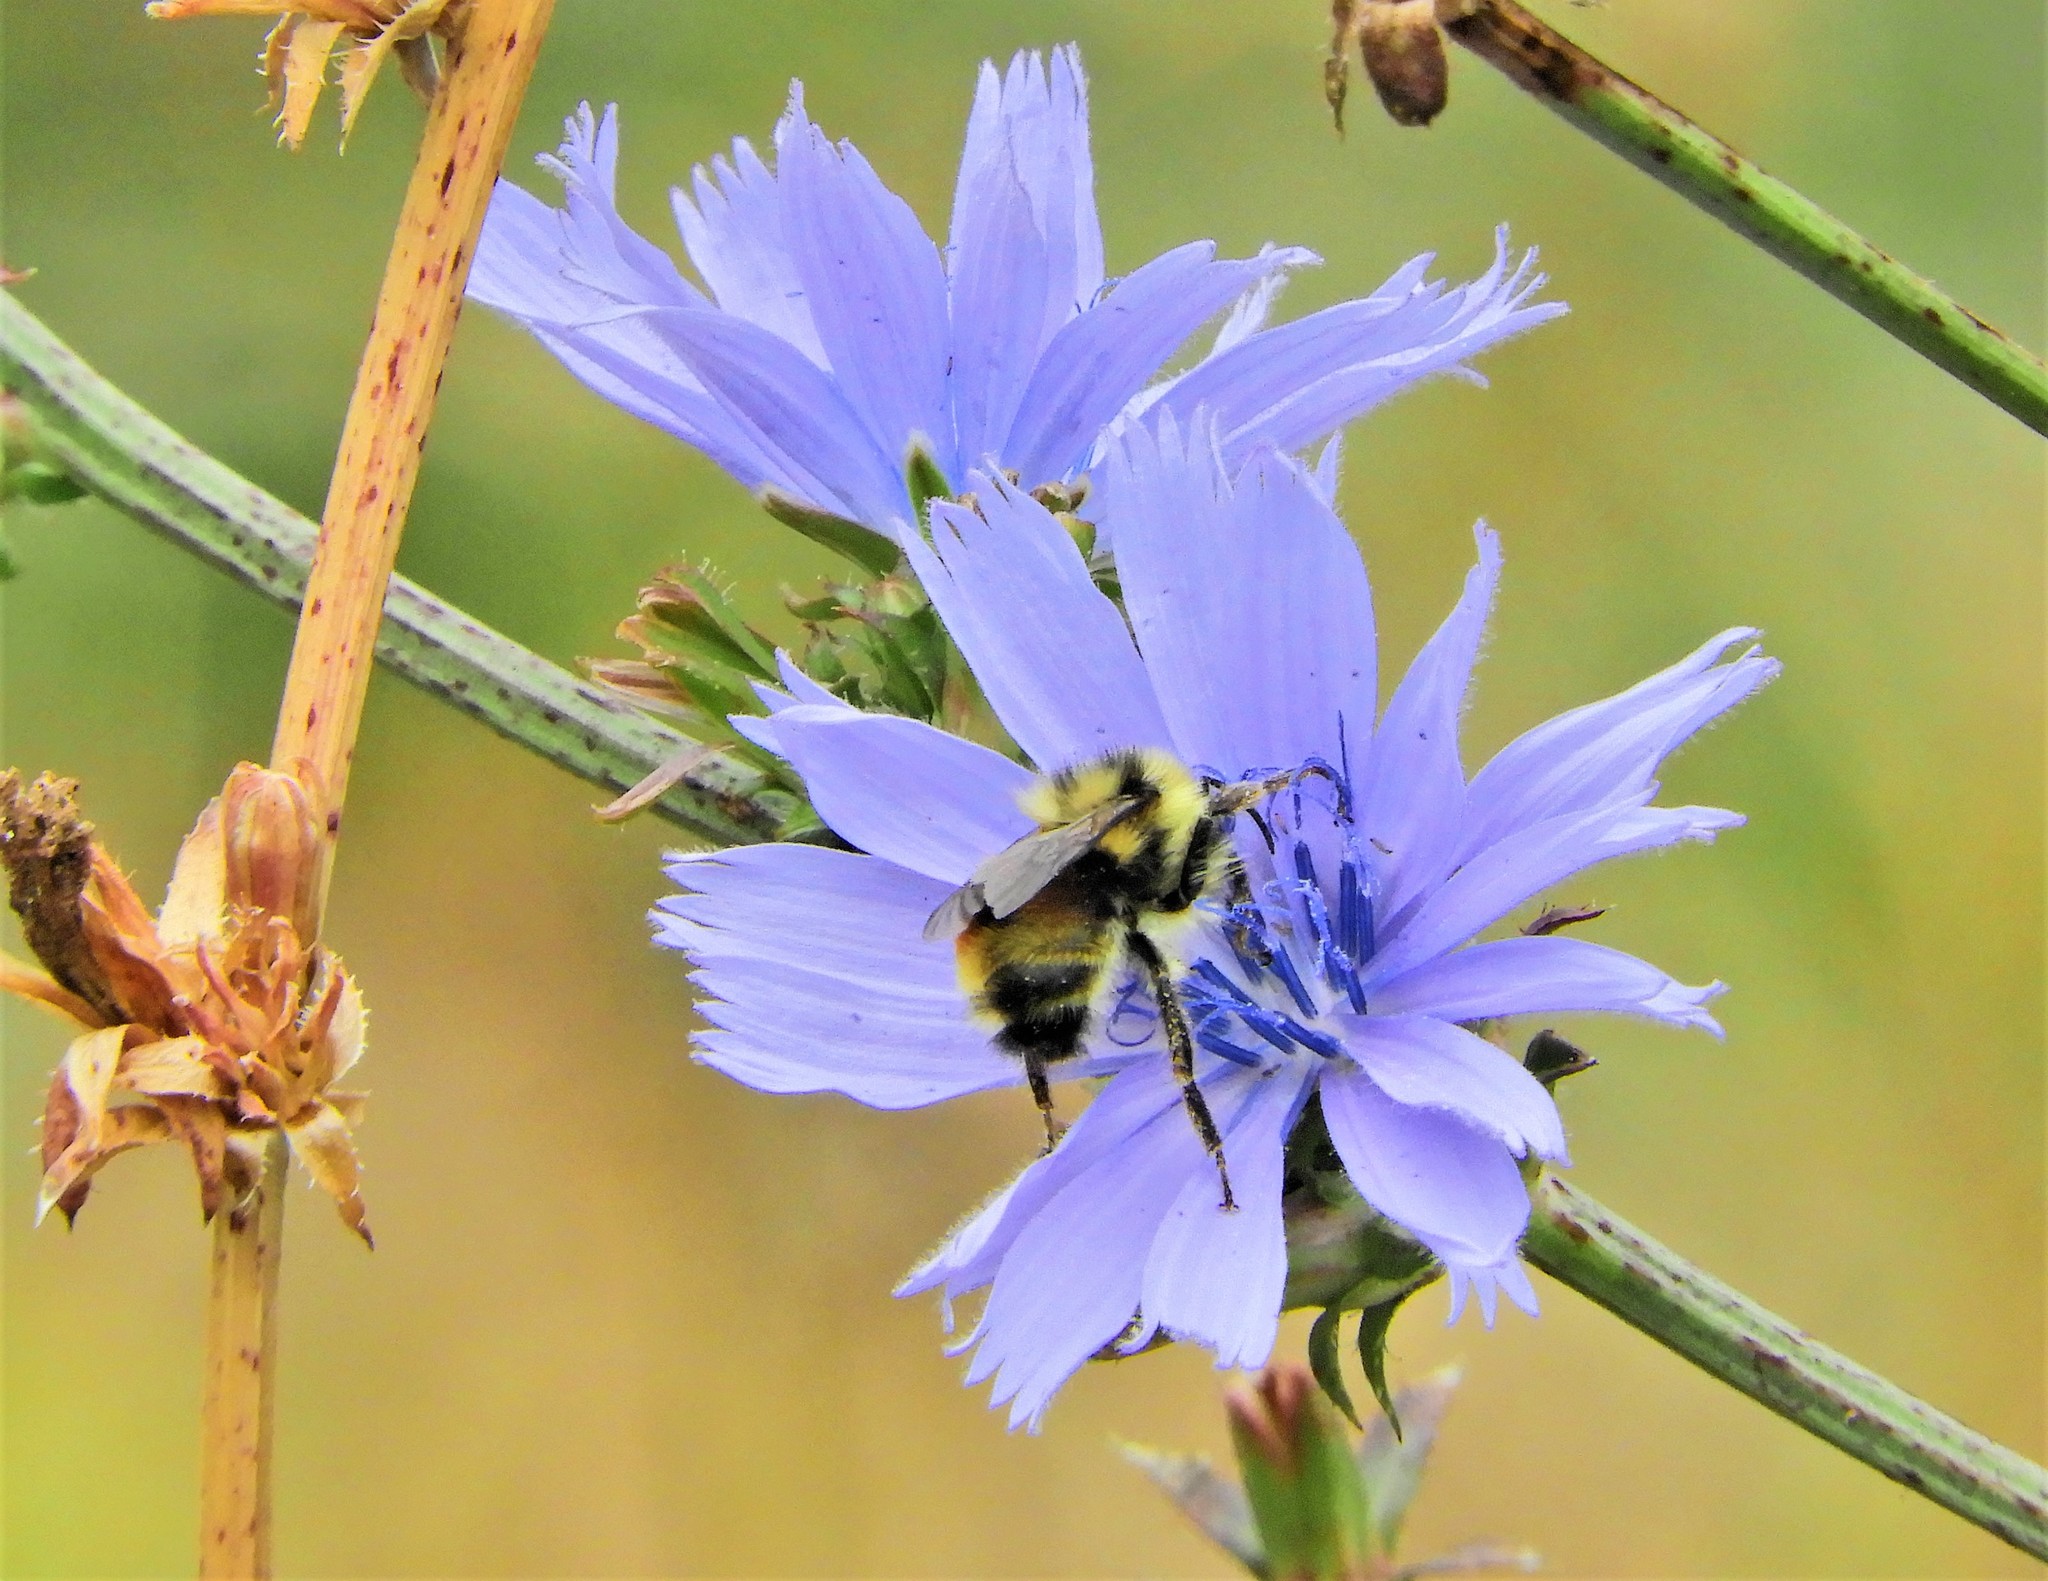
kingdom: Animalia
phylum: Arthropoda
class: Insecta
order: Hymenoptera
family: Apidae
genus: Bombus
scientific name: Bombus vancouverensis
